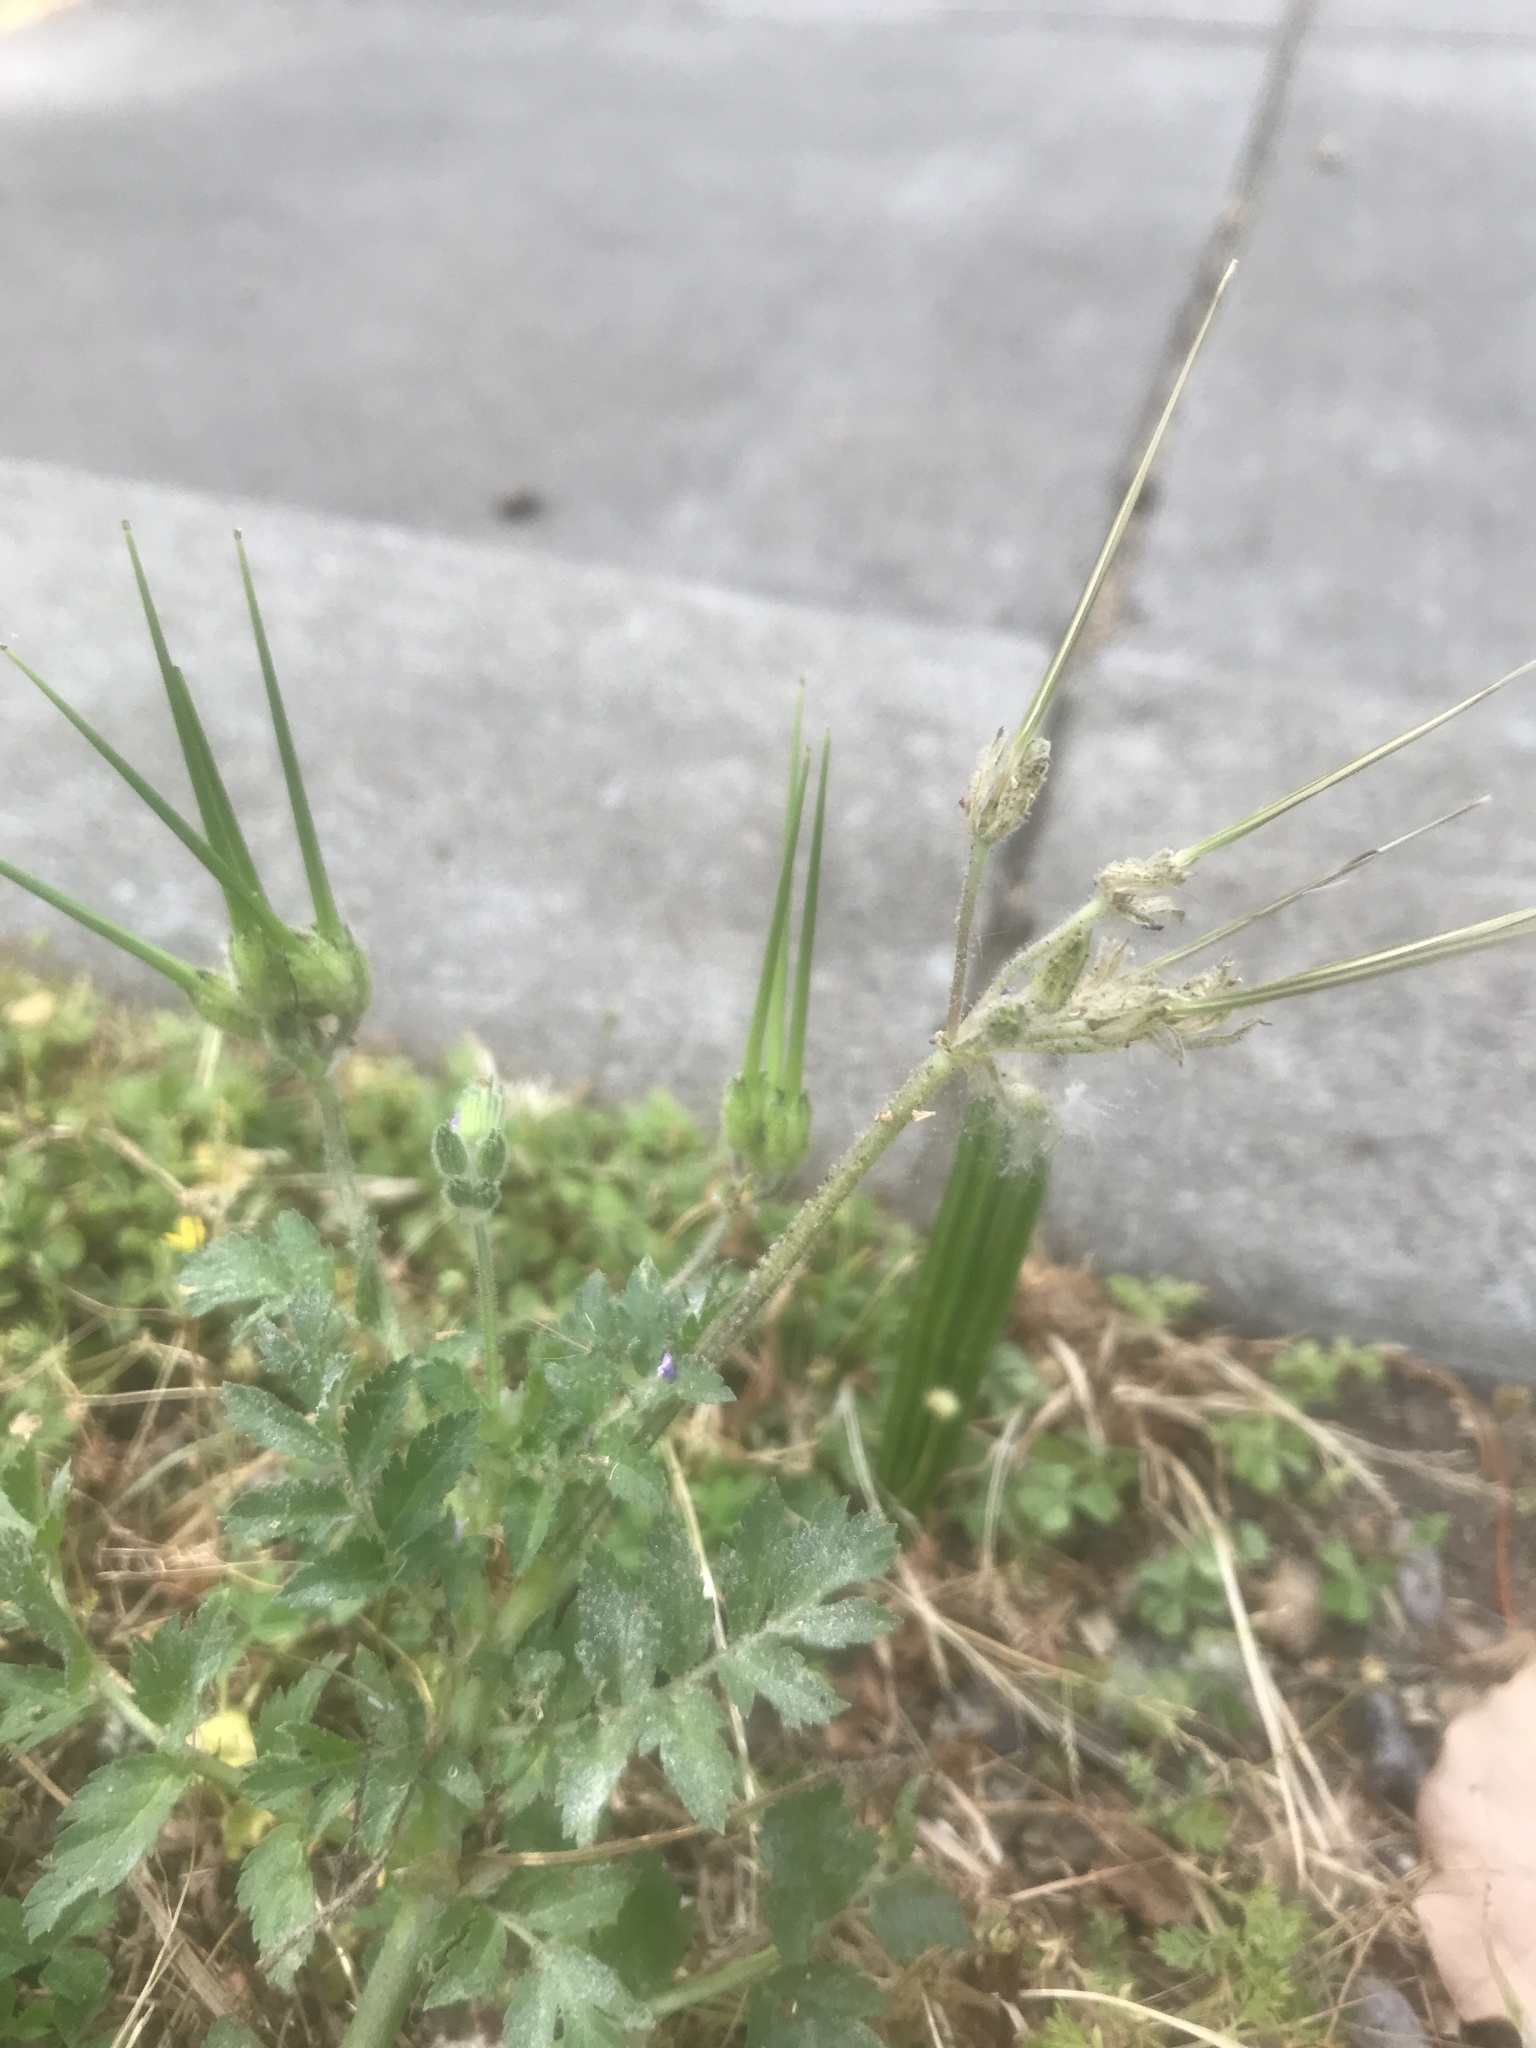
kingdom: Plantae
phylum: Tracheophyta
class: Magnoliopsida
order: Geraniales
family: Geraniaceae
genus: Erodium
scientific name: Erodium moschatum
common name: Musk stork's-bill
